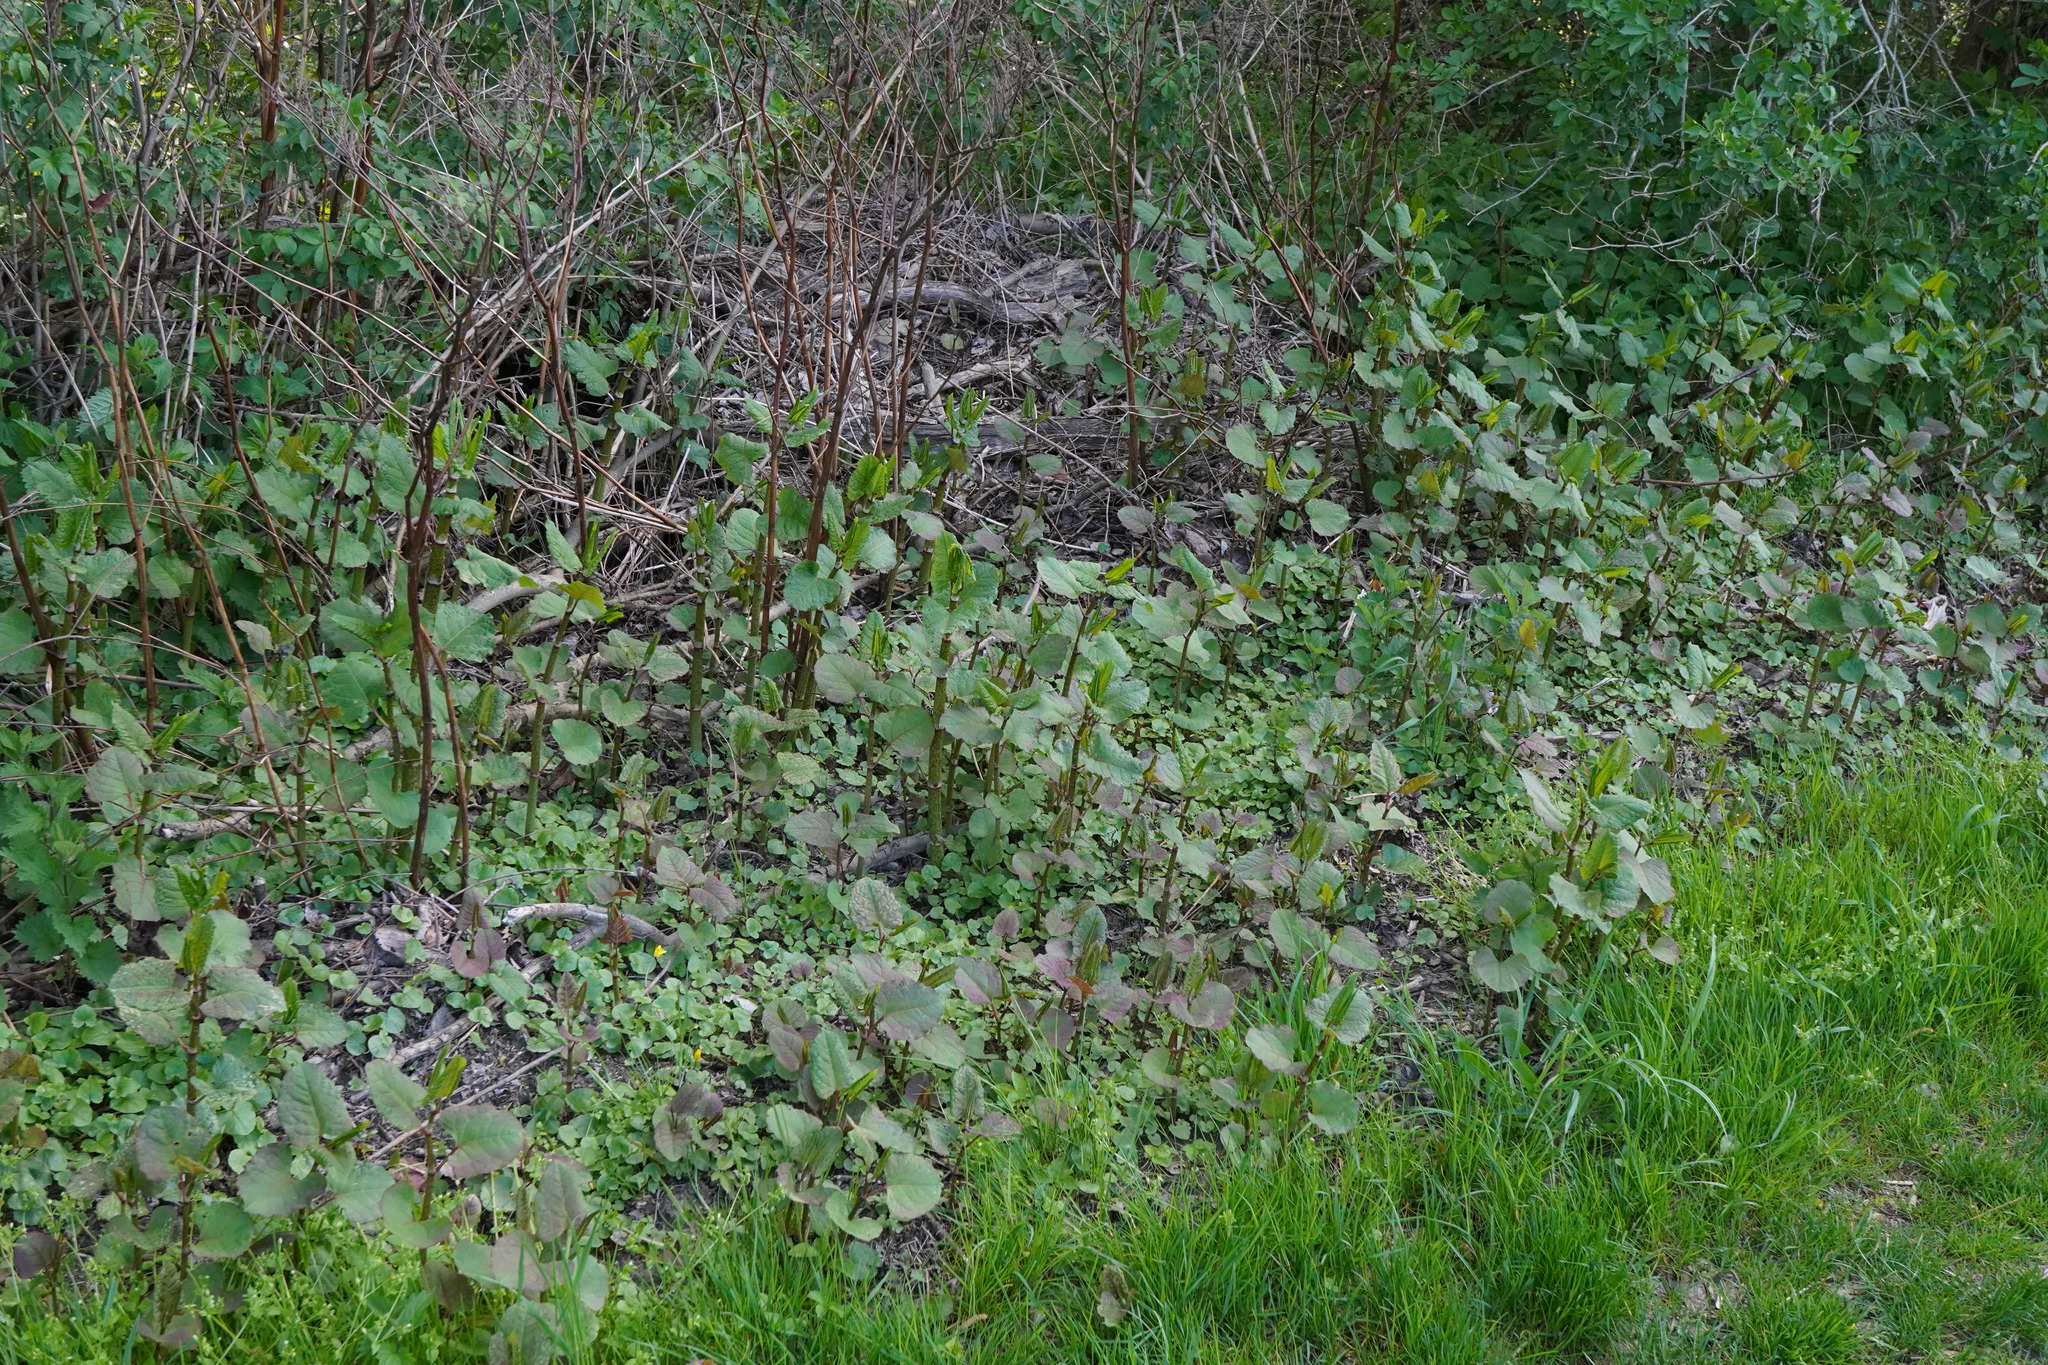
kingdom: Plantae
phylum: Tracheophyta
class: Magnoliopsida
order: Caryophyllales
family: Polygonaceae
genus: Reynoutria
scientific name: Reynoutria bohemica
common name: Bohemian knotweed
